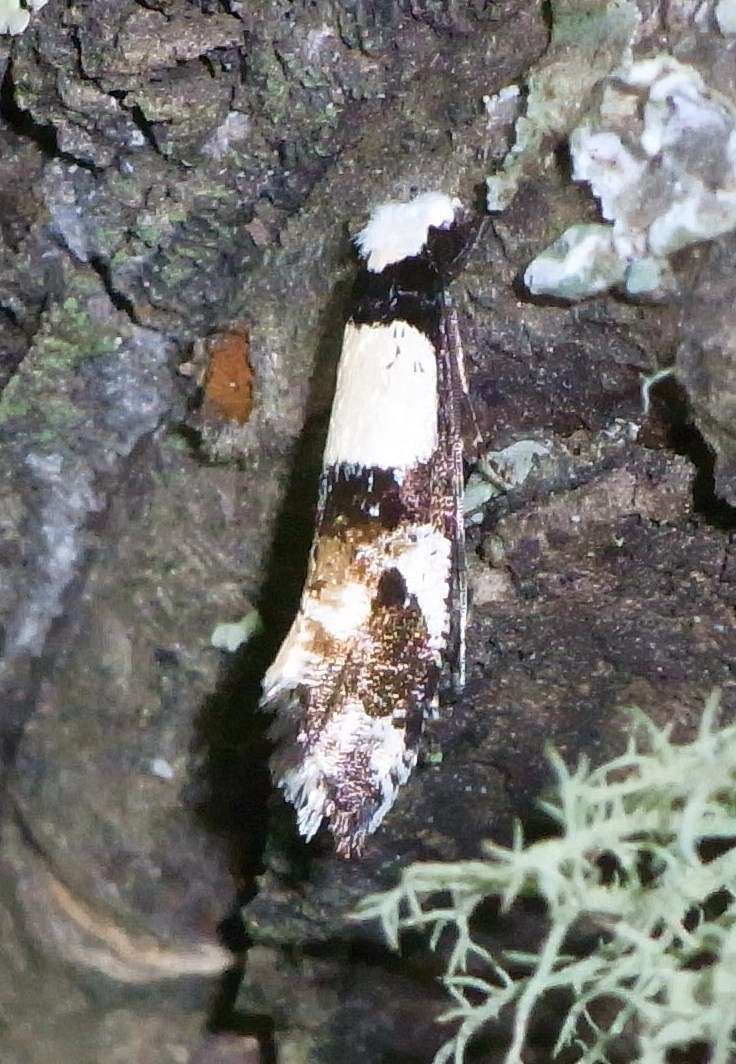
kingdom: Animalia
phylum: Arthropoda
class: Insecta
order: Lepidoptera
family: Tineidae
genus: Monopis
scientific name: Monopis icterogastra
